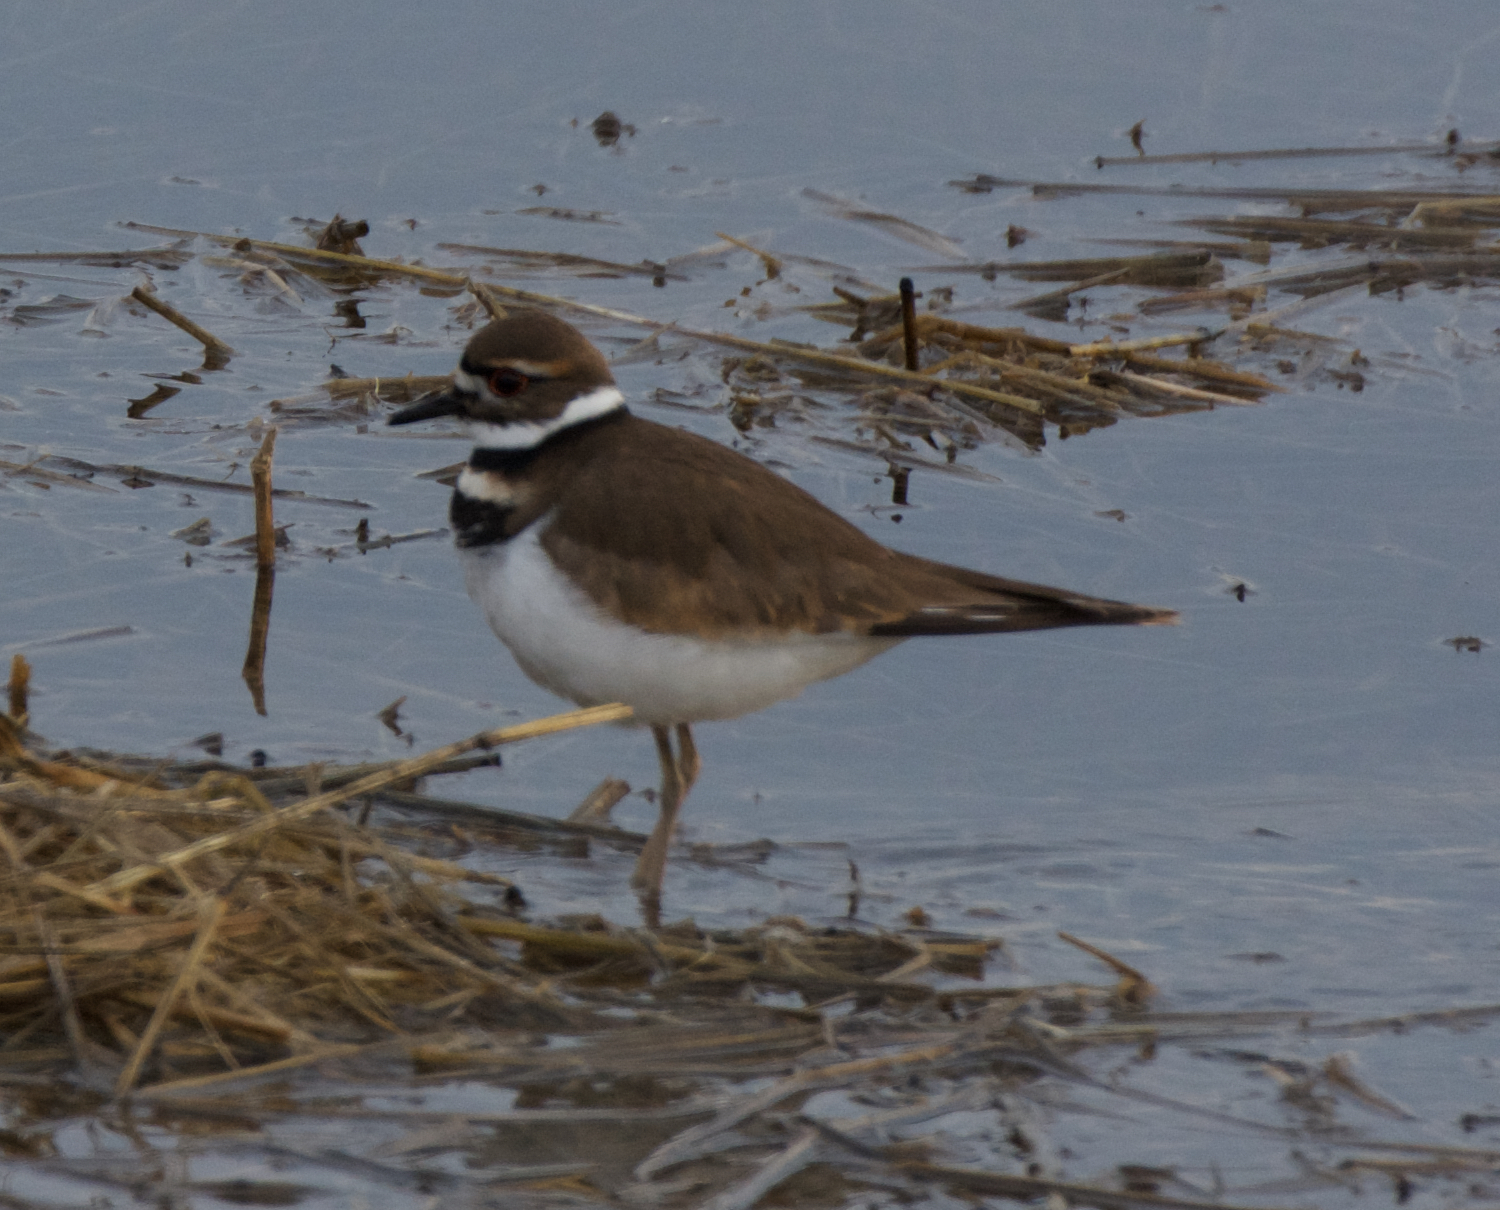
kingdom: Animalia
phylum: Chordata
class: Aves
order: Charadriiformes
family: Charadriidae
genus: Charadrius
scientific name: Charadrius vociferus
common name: Killdeer
